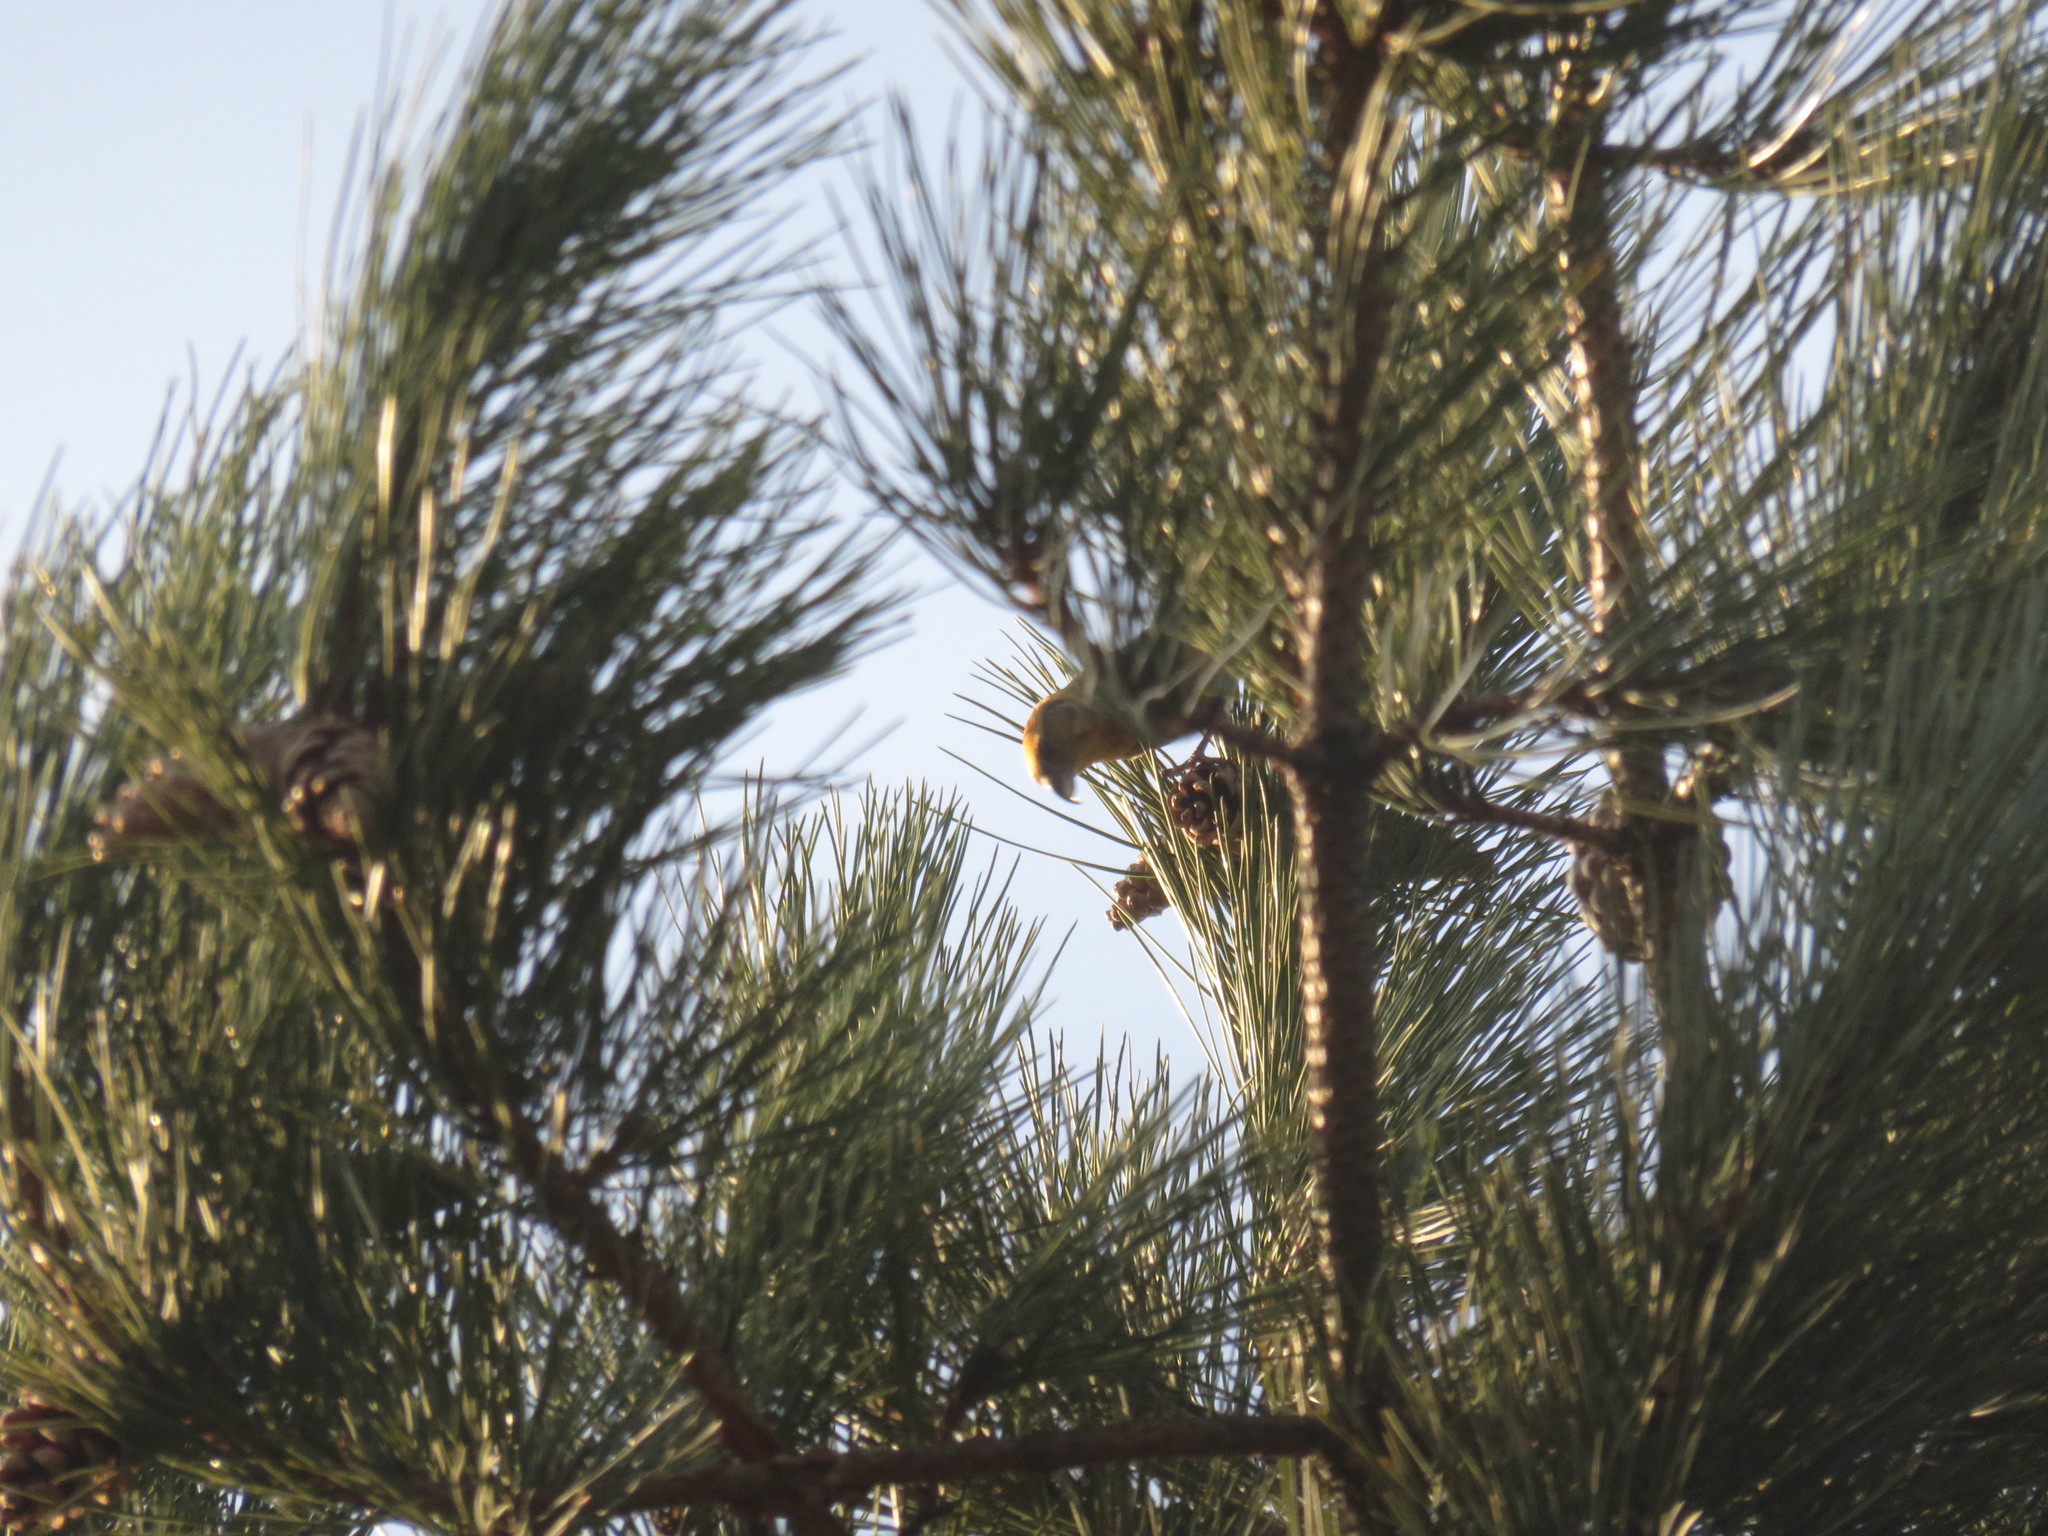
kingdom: Animalia
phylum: Chordata
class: Aves
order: Passeriformes
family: Fringillidae
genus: Loxia
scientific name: Loxia curvirostra
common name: Red crossbill
